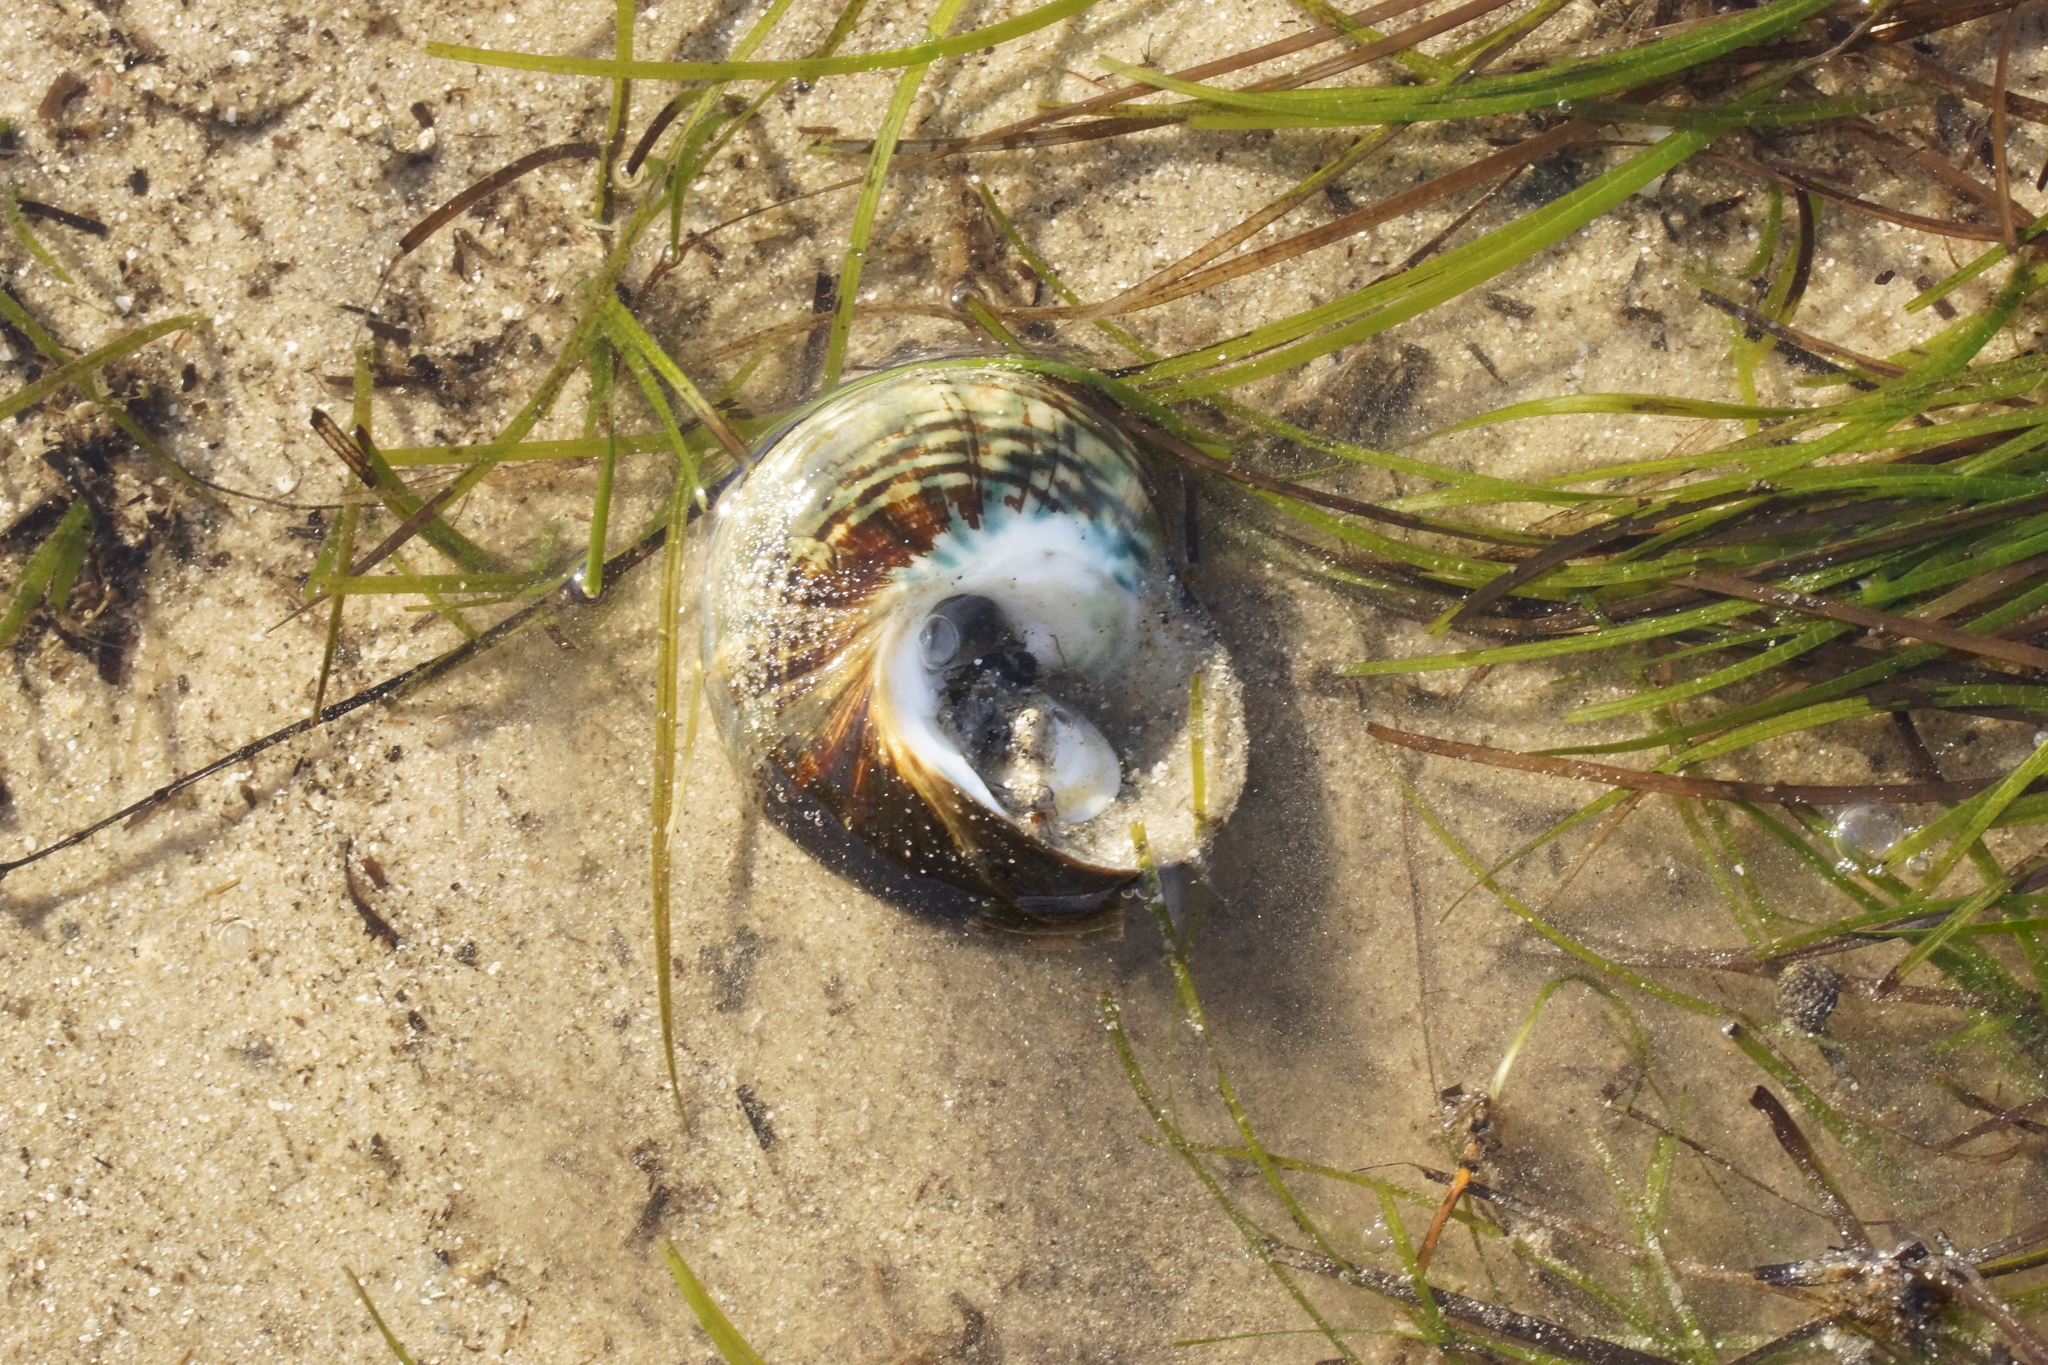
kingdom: Animalia
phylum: Mollusca
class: Gastropoda
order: Trochida
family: Turbinidae
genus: Lunella
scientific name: Lunella undulata
